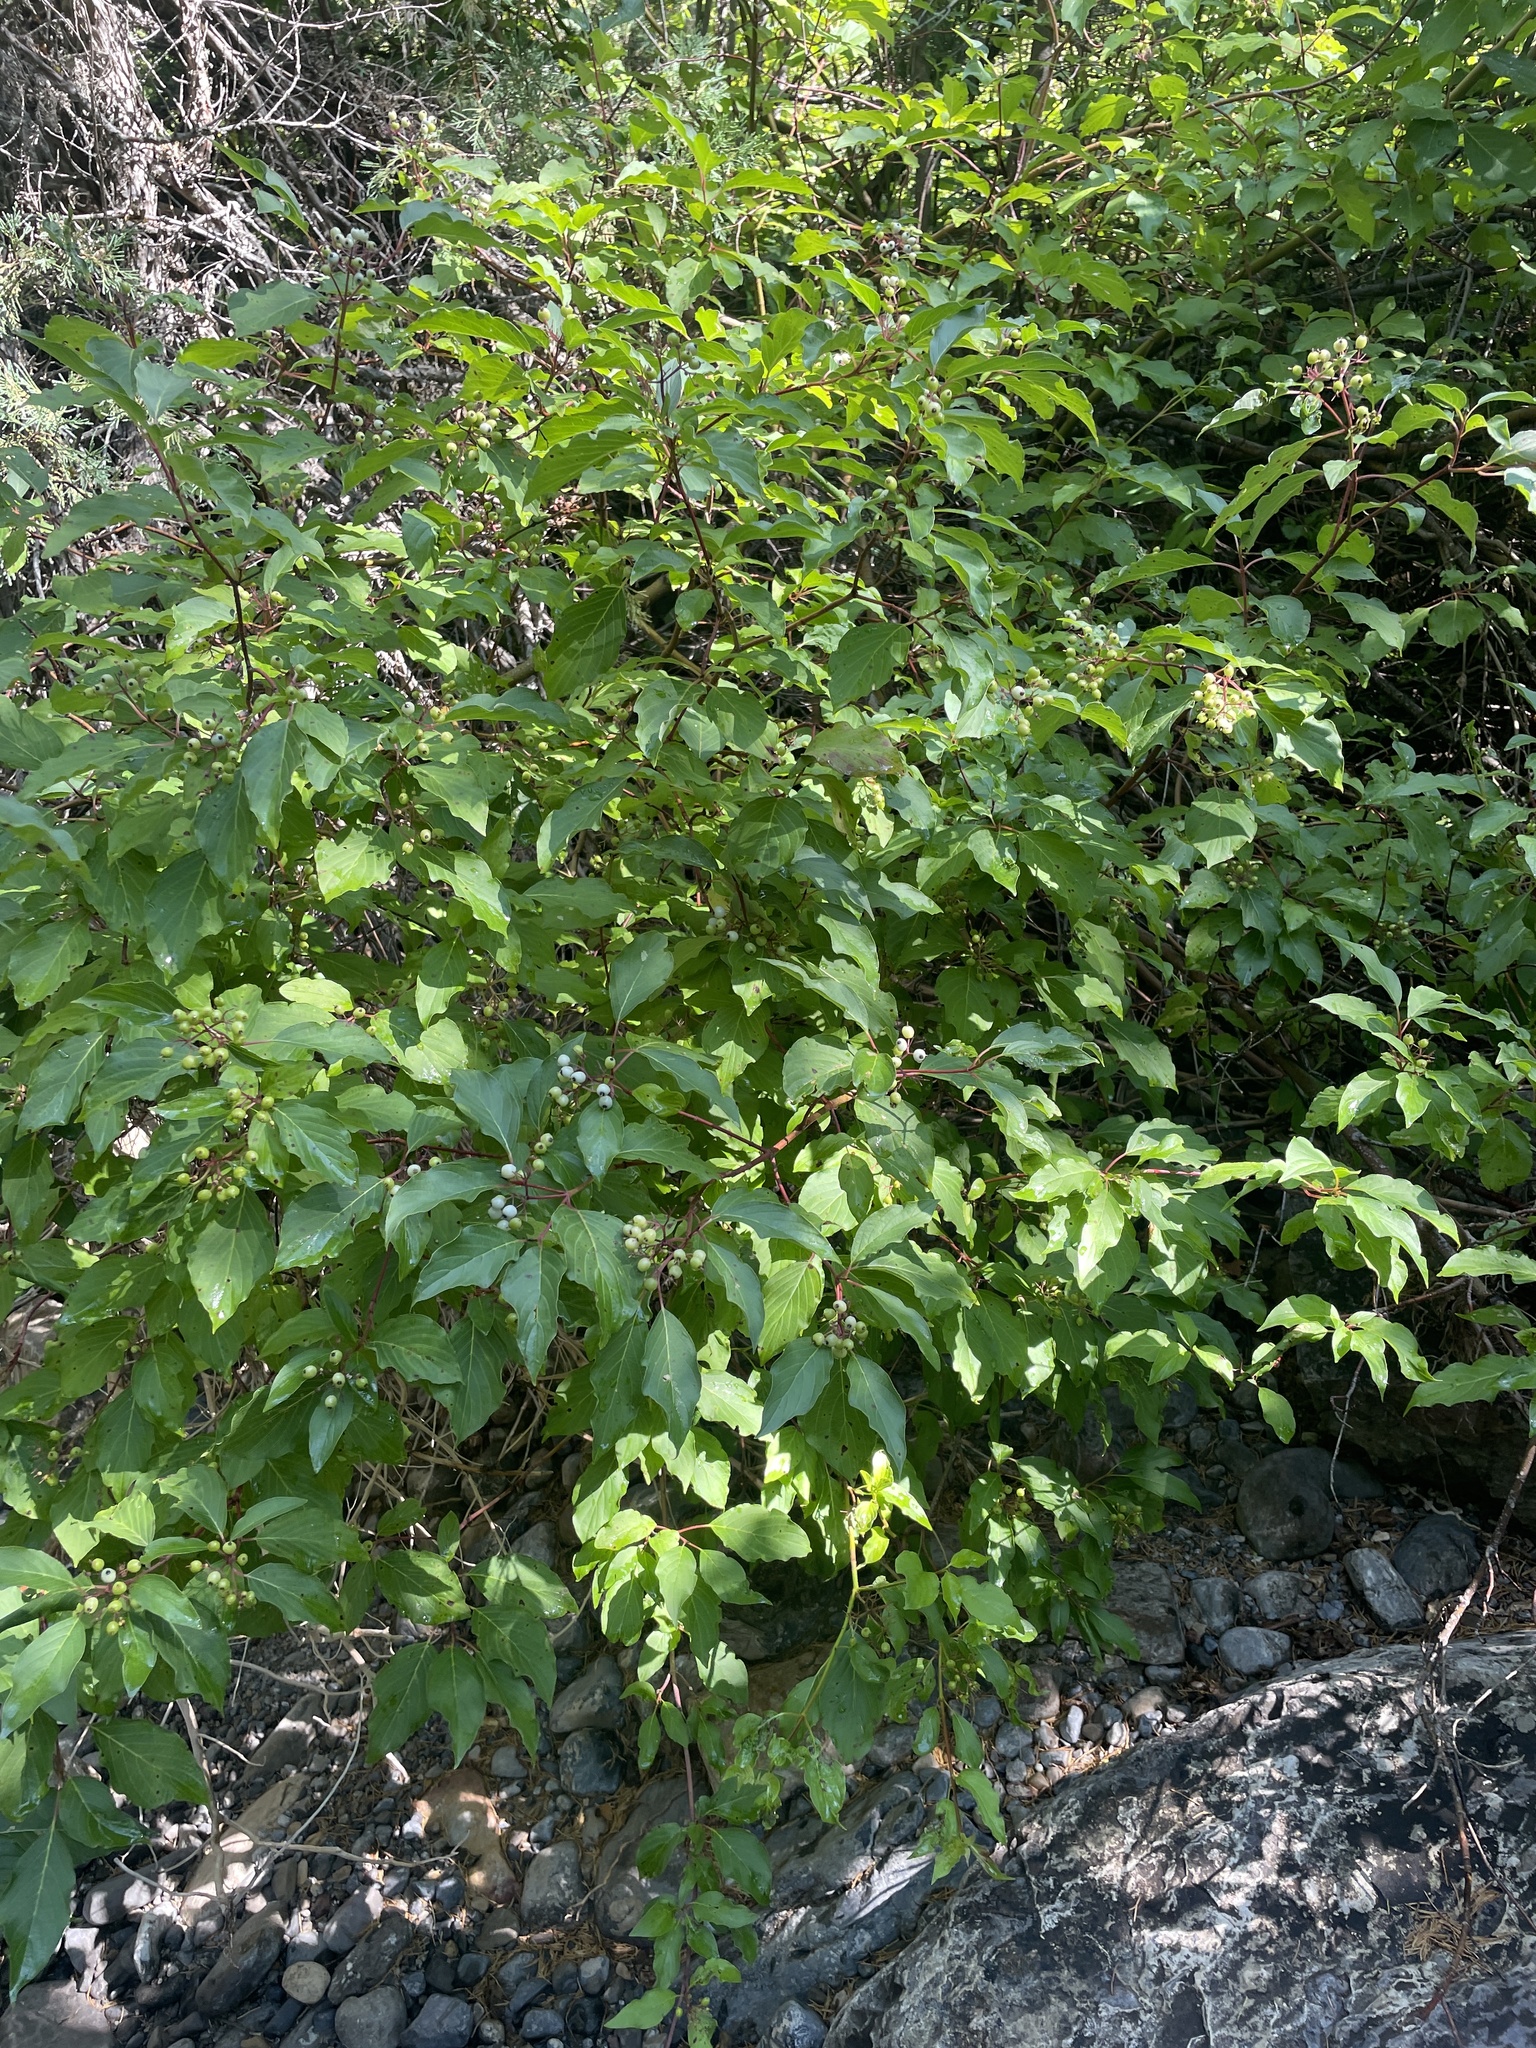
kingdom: Plantae
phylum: Tracheophyta
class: Magnoliopsida
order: Cornales
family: Cornaceae
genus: Cornus
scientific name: Cornus sericea
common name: Red-osier dogwood
